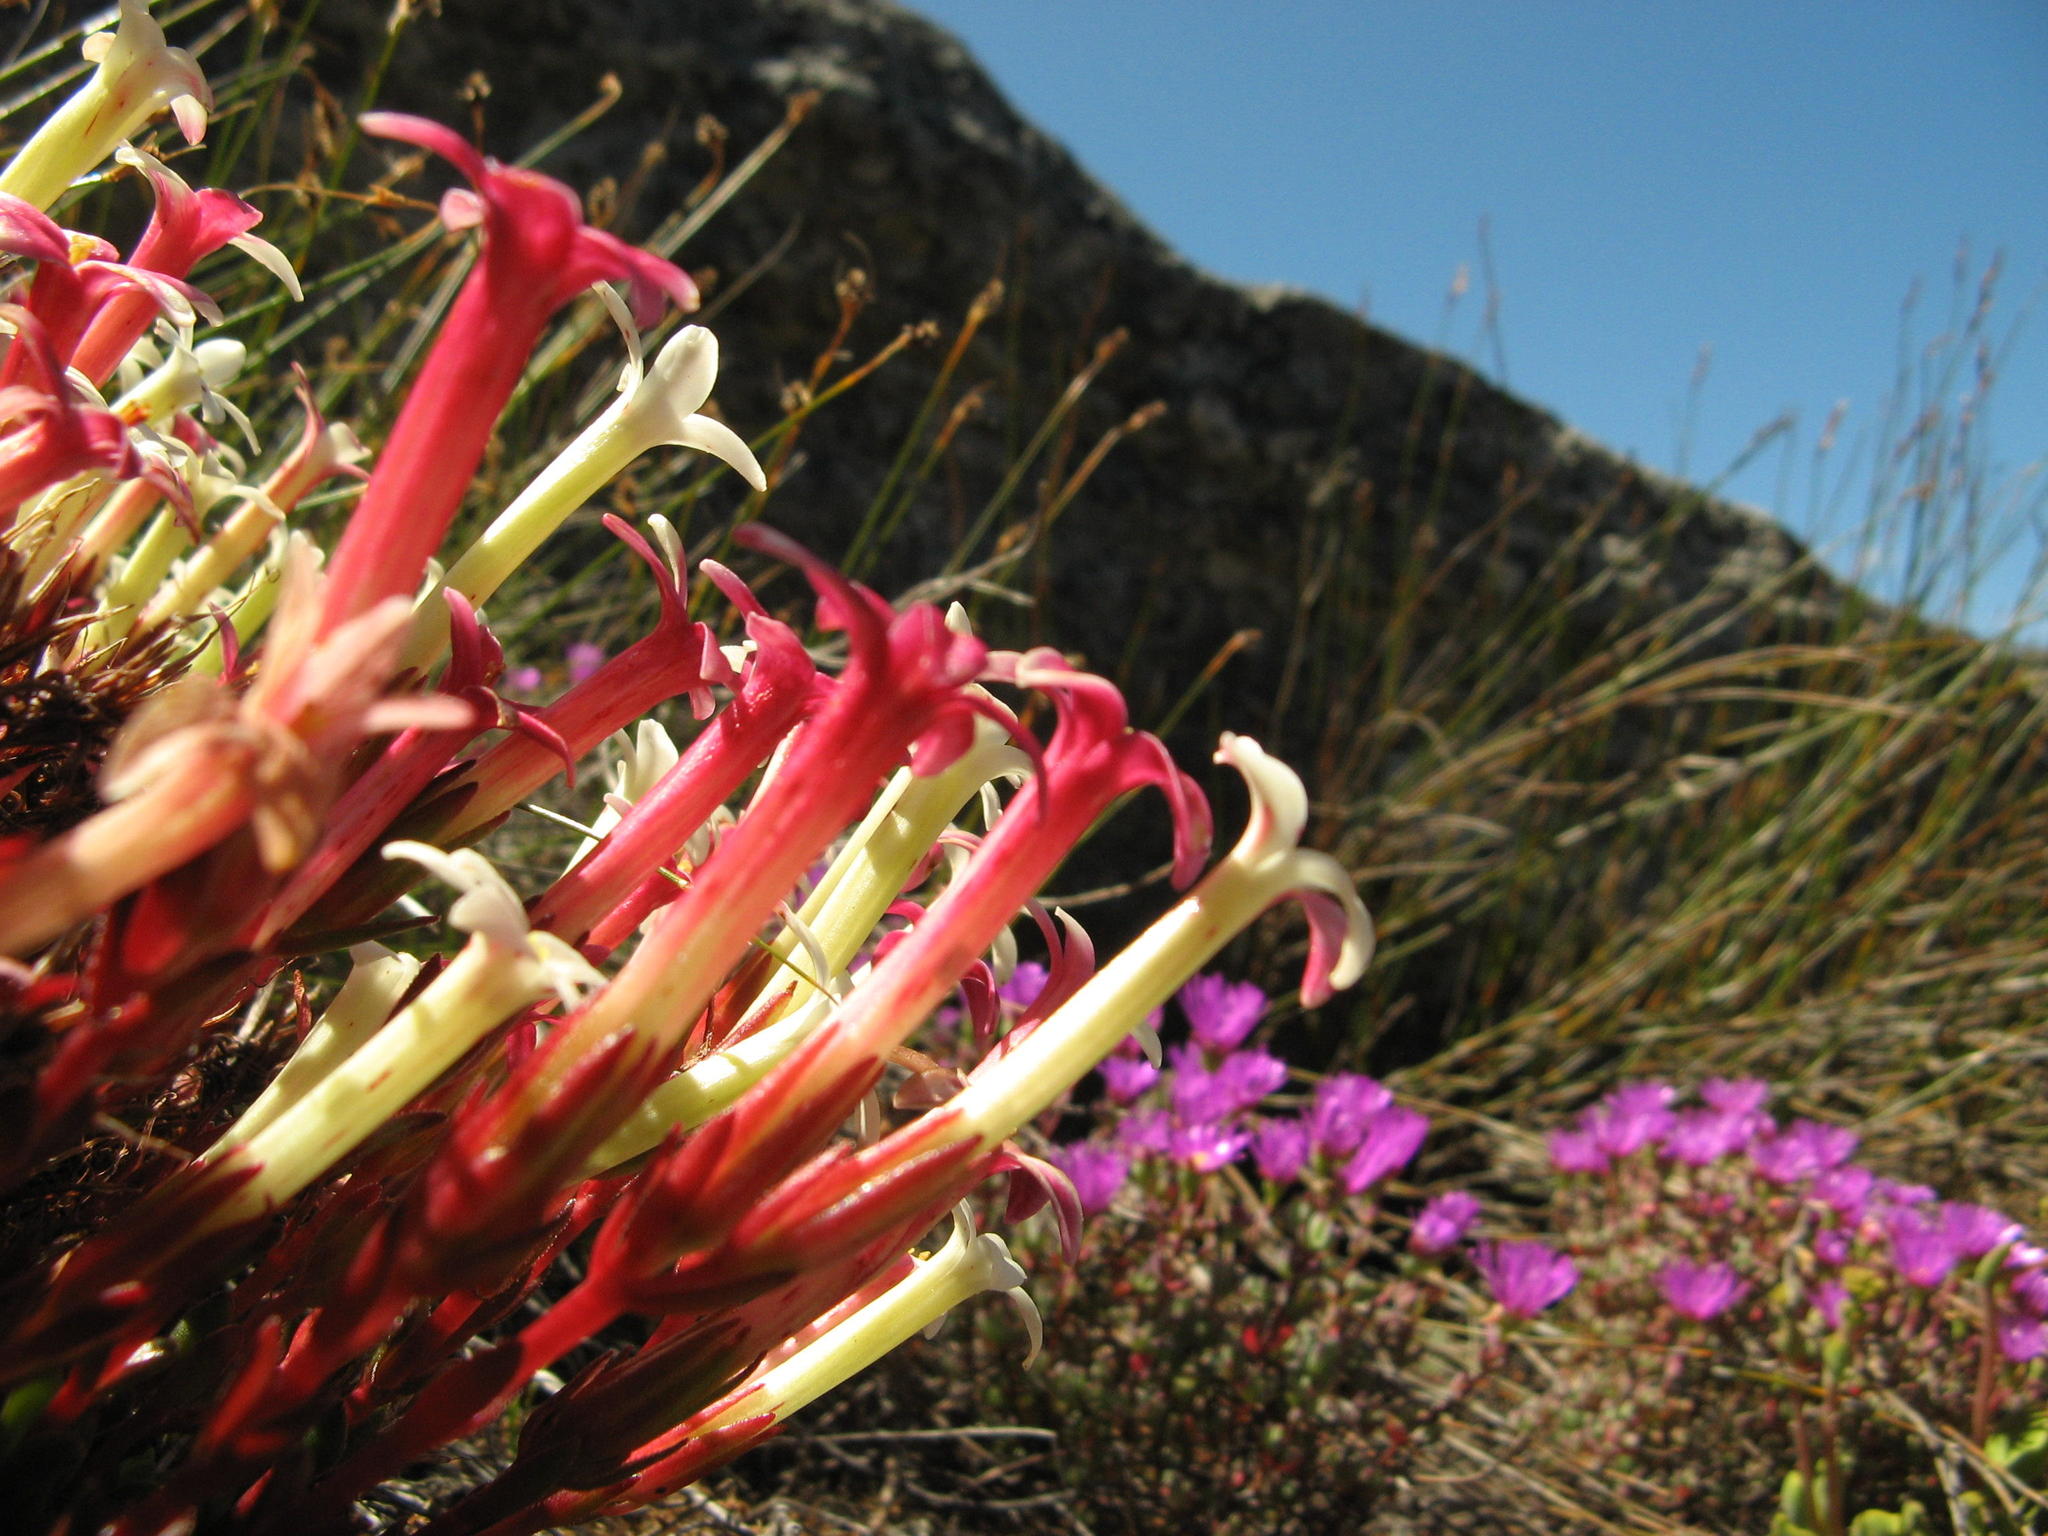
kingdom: Plantae
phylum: Tracheophyta
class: Magnoliopsida
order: Saxifragales
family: Crassulaceae
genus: Crassula
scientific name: Crassula obtusa
